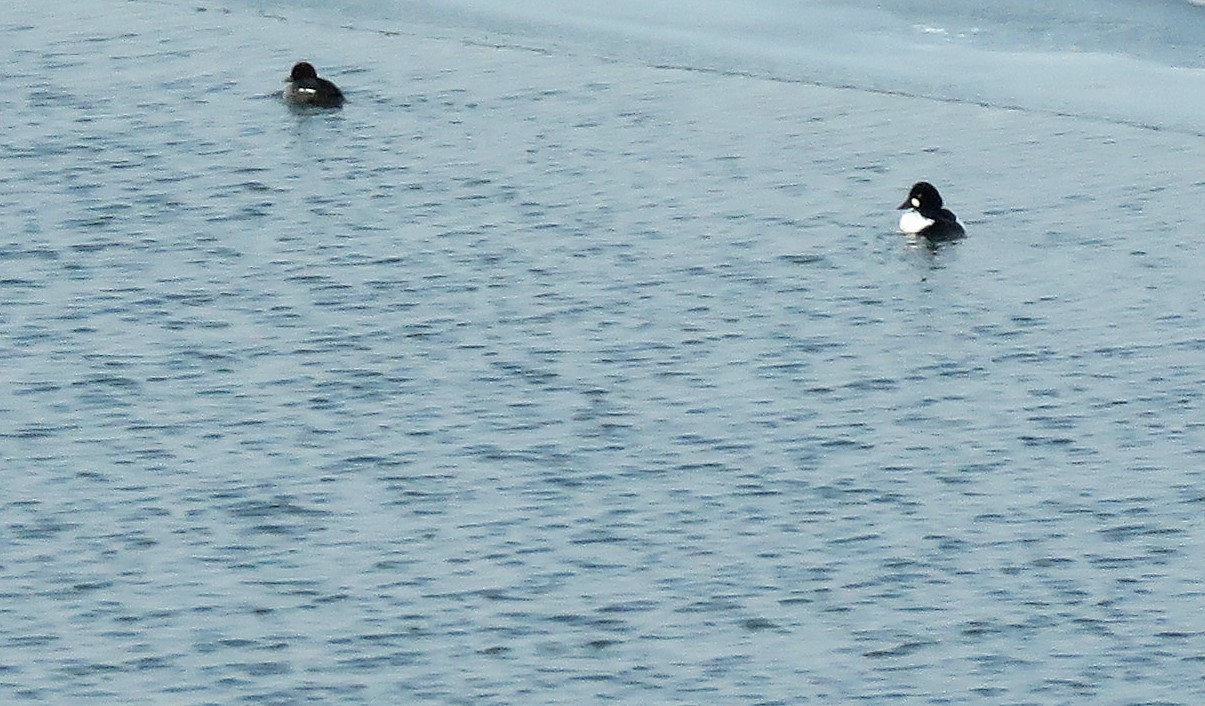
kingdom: Animalia
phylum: Chordata
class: Aves
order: Anseriformes
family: Anatidae
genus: Bucephala
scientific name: Bucephala clangula
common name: Common goldeneye
